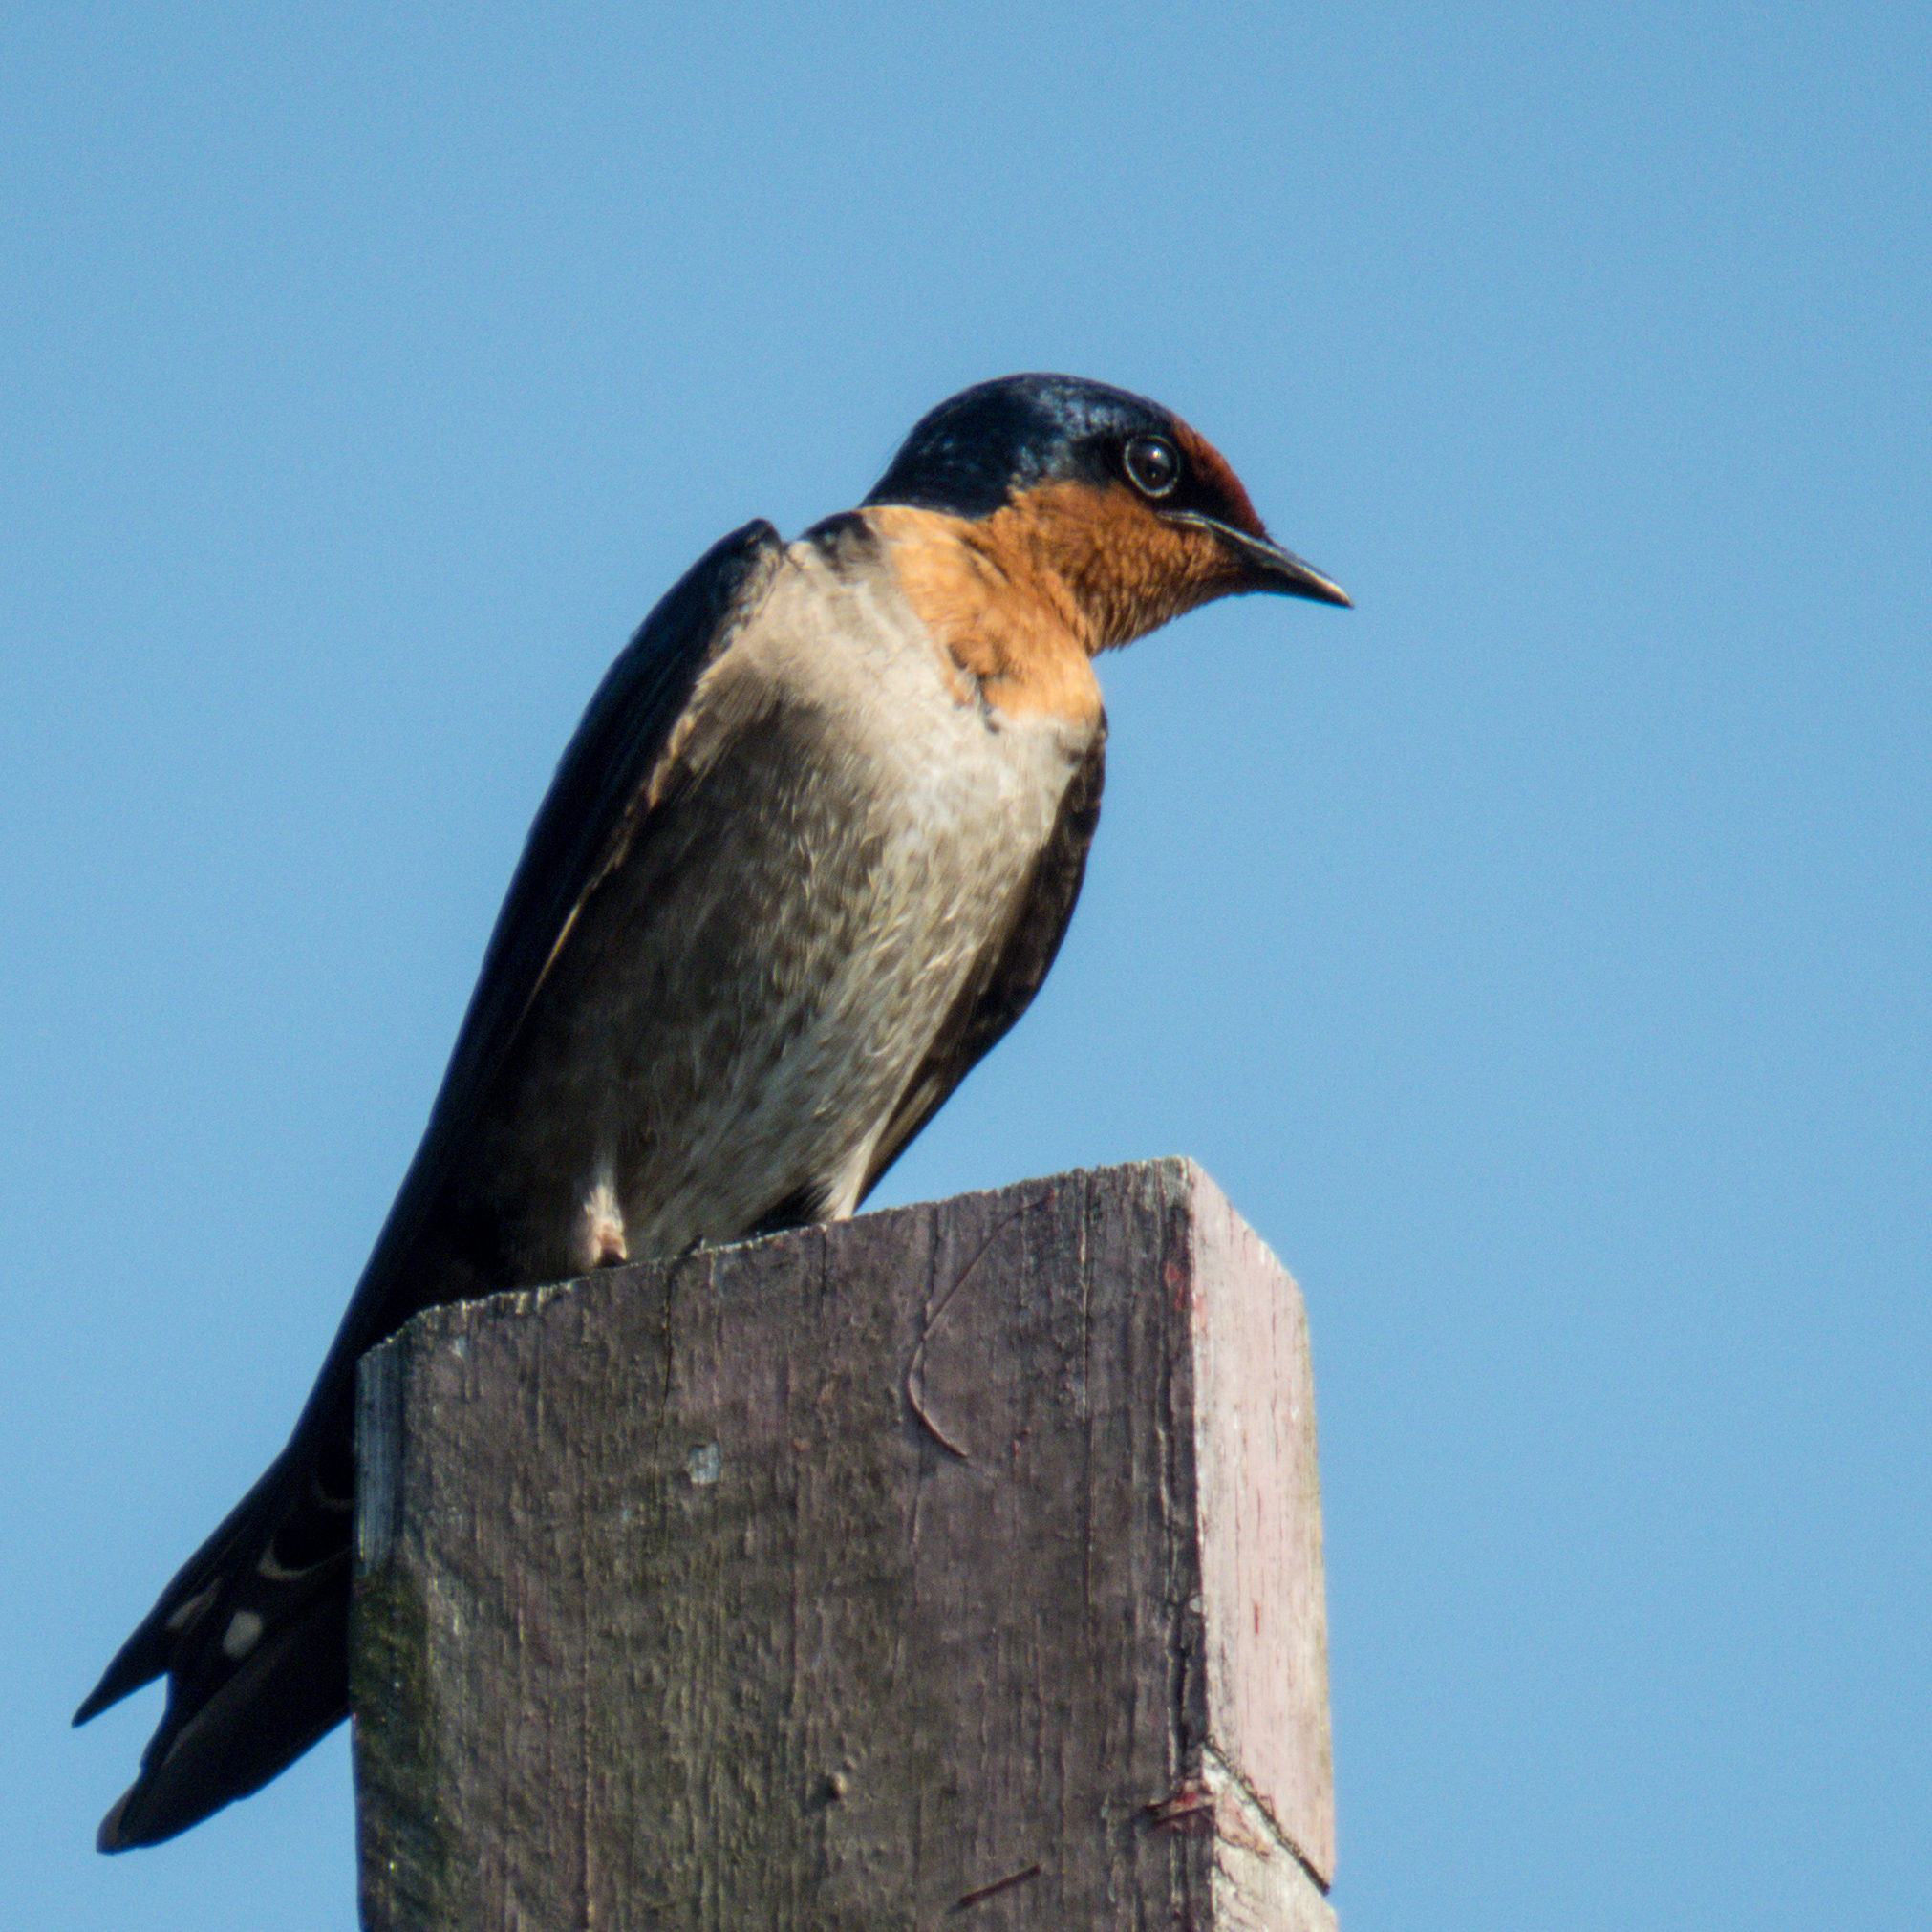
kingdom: Animalia
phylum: Chordata
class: Aves
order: Passeriformes
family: Hirundinidae
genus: Hirundo
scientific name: Hirundo tahitica
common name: Pacific swallow
